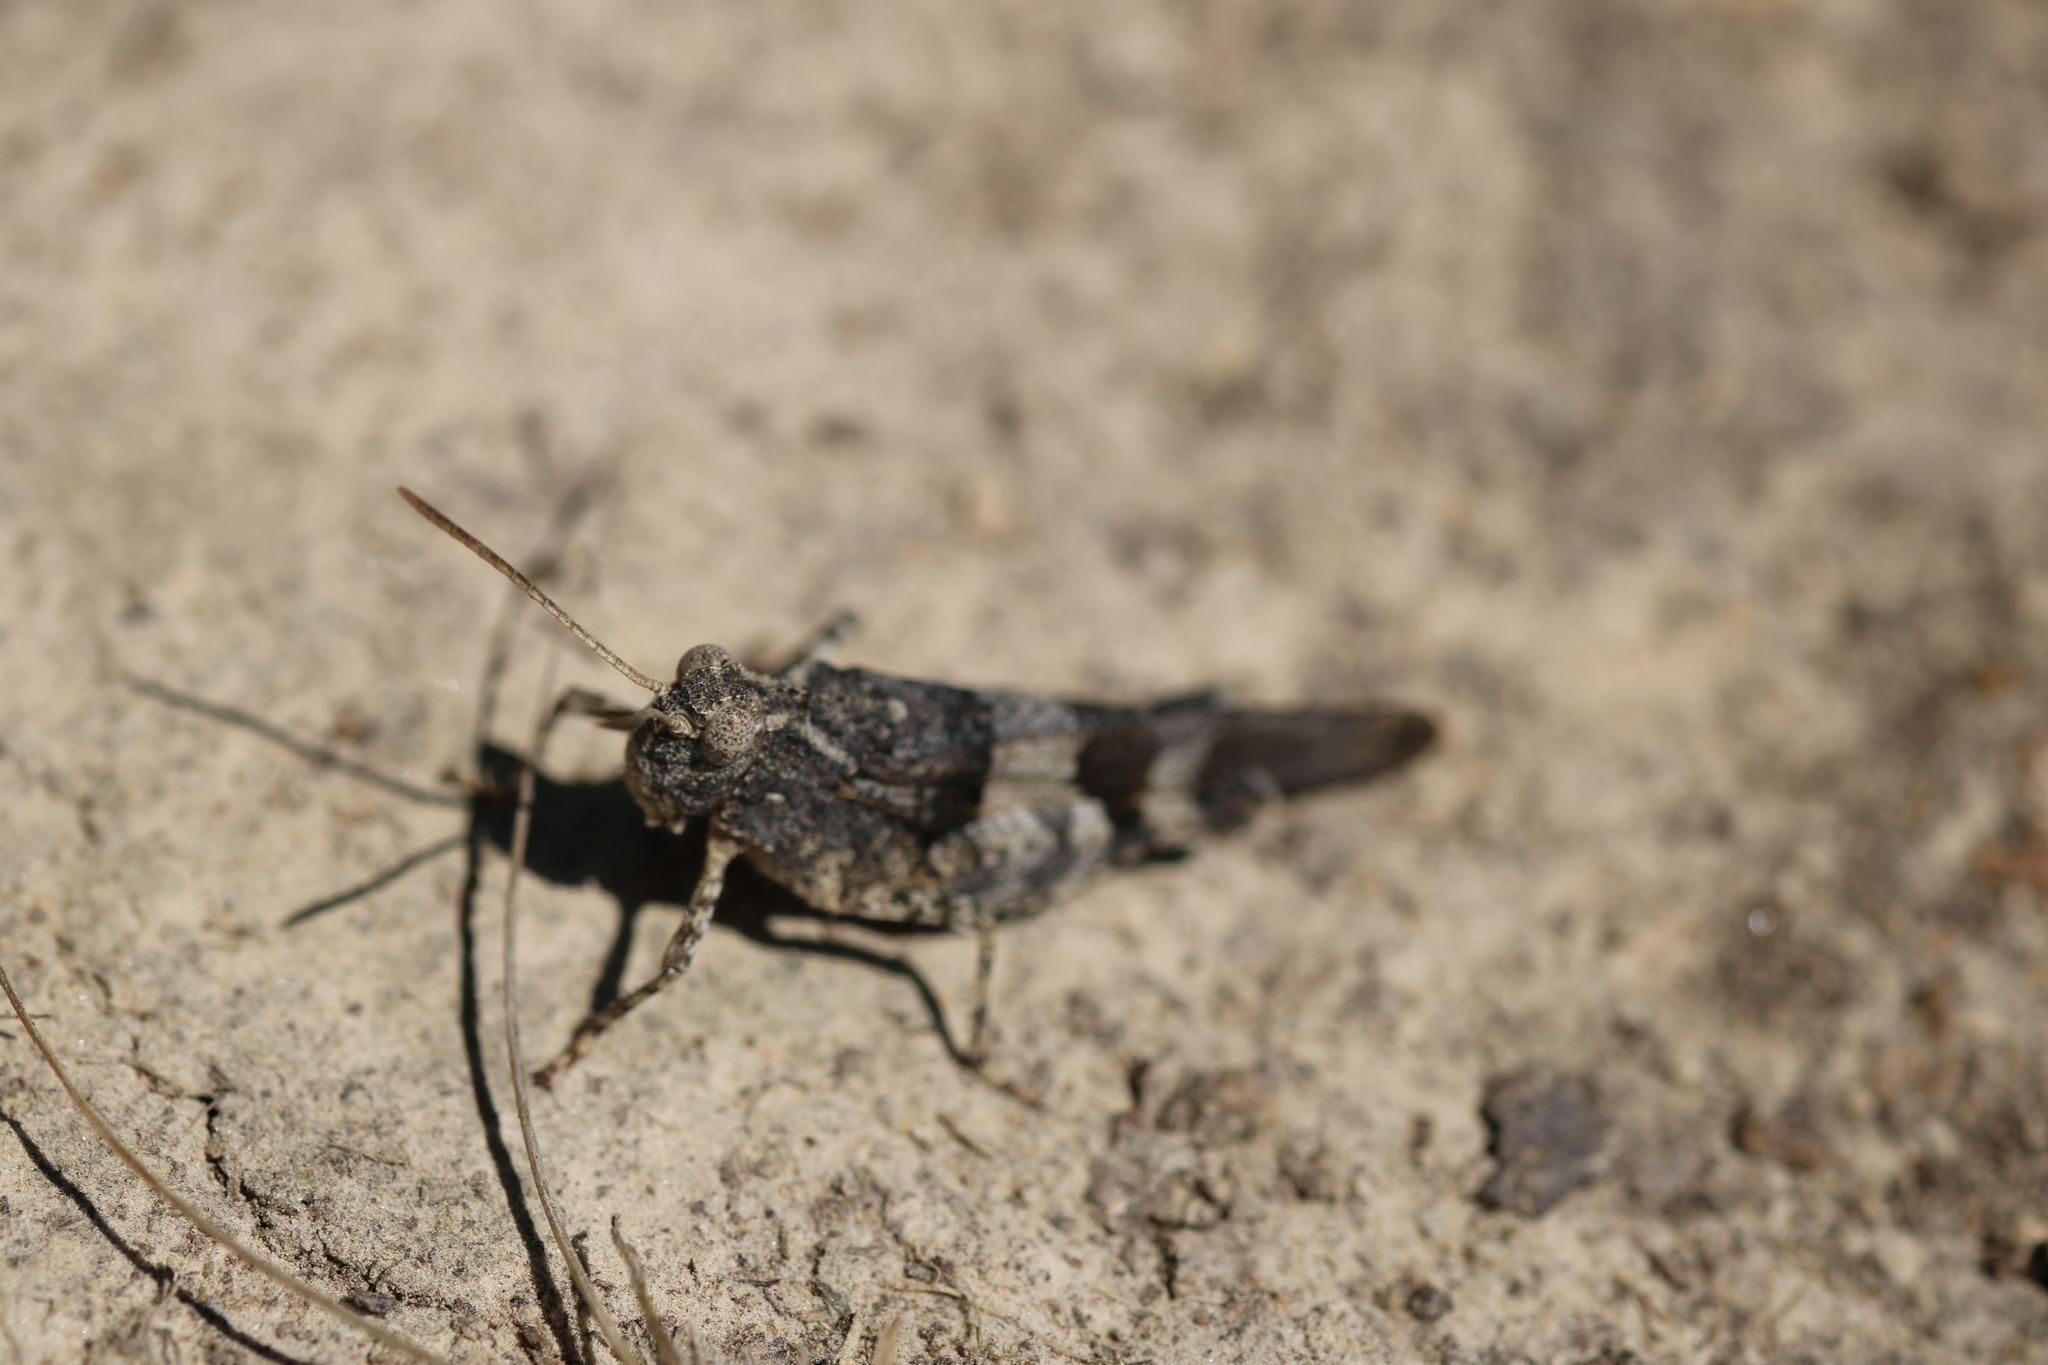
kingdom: Animalia
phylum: Arthropoda
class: Insecta
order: Orthoptera
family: Acrididae
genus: Oedipoda
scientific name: Oedipoda caerulescens
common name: Blue-winged grasshopper
